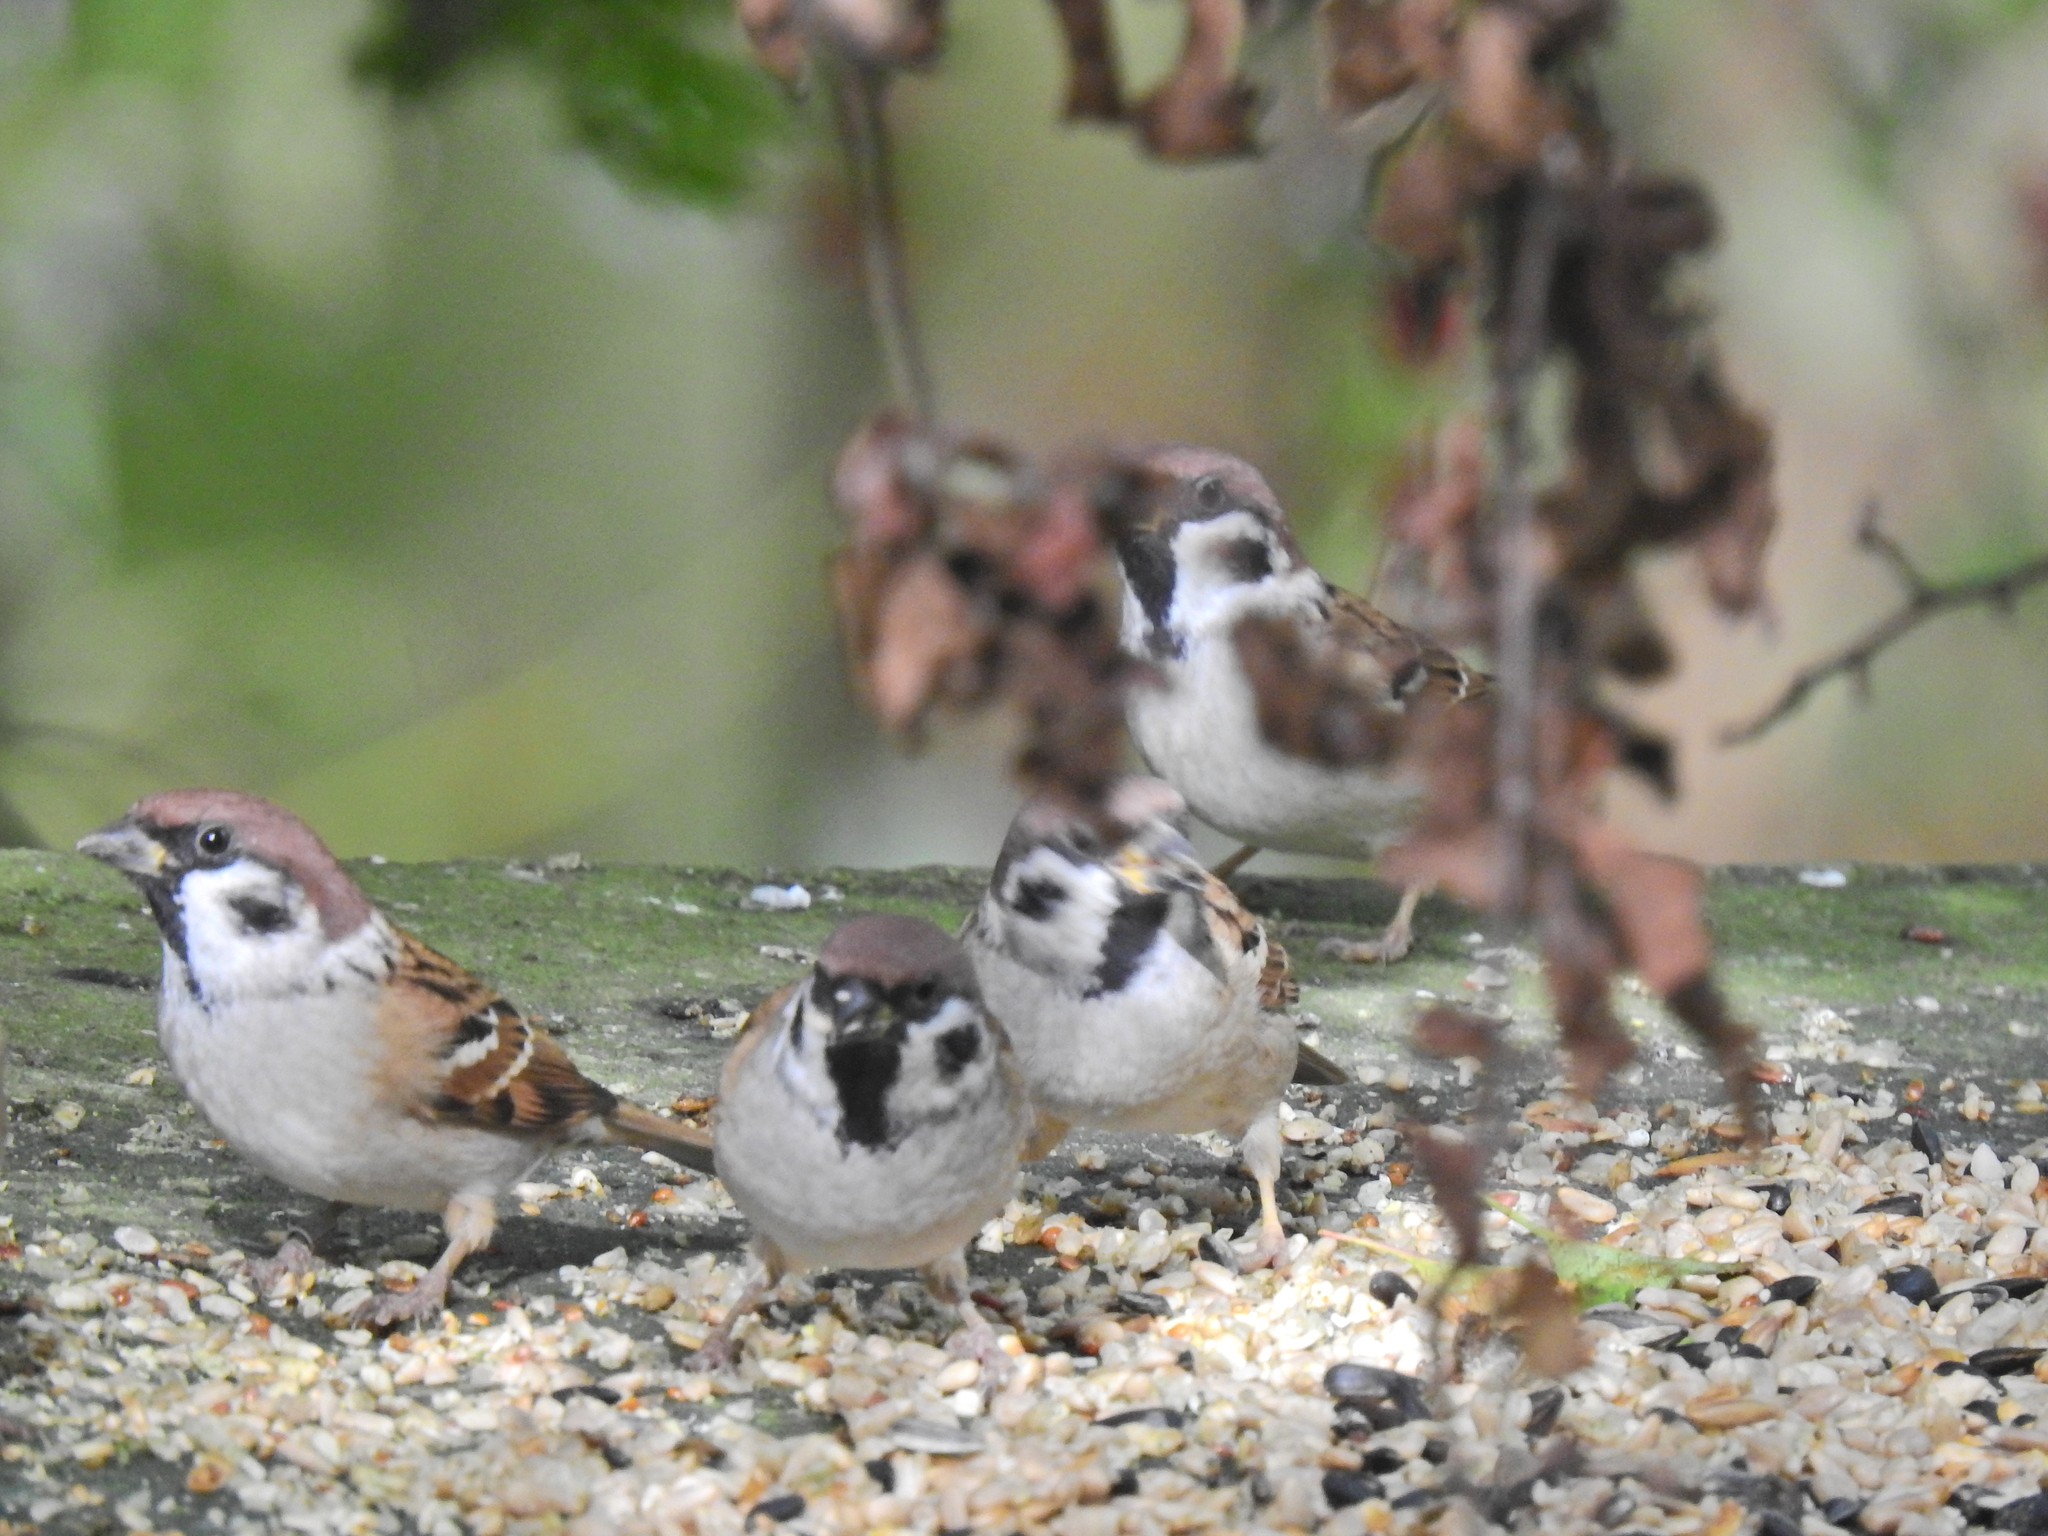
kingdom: Animalia
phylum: Chordata
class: Aves
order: Passeriformes
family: Passeridae
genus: Passer
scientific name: Passer montanus
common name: Eurasian tree sparrow
